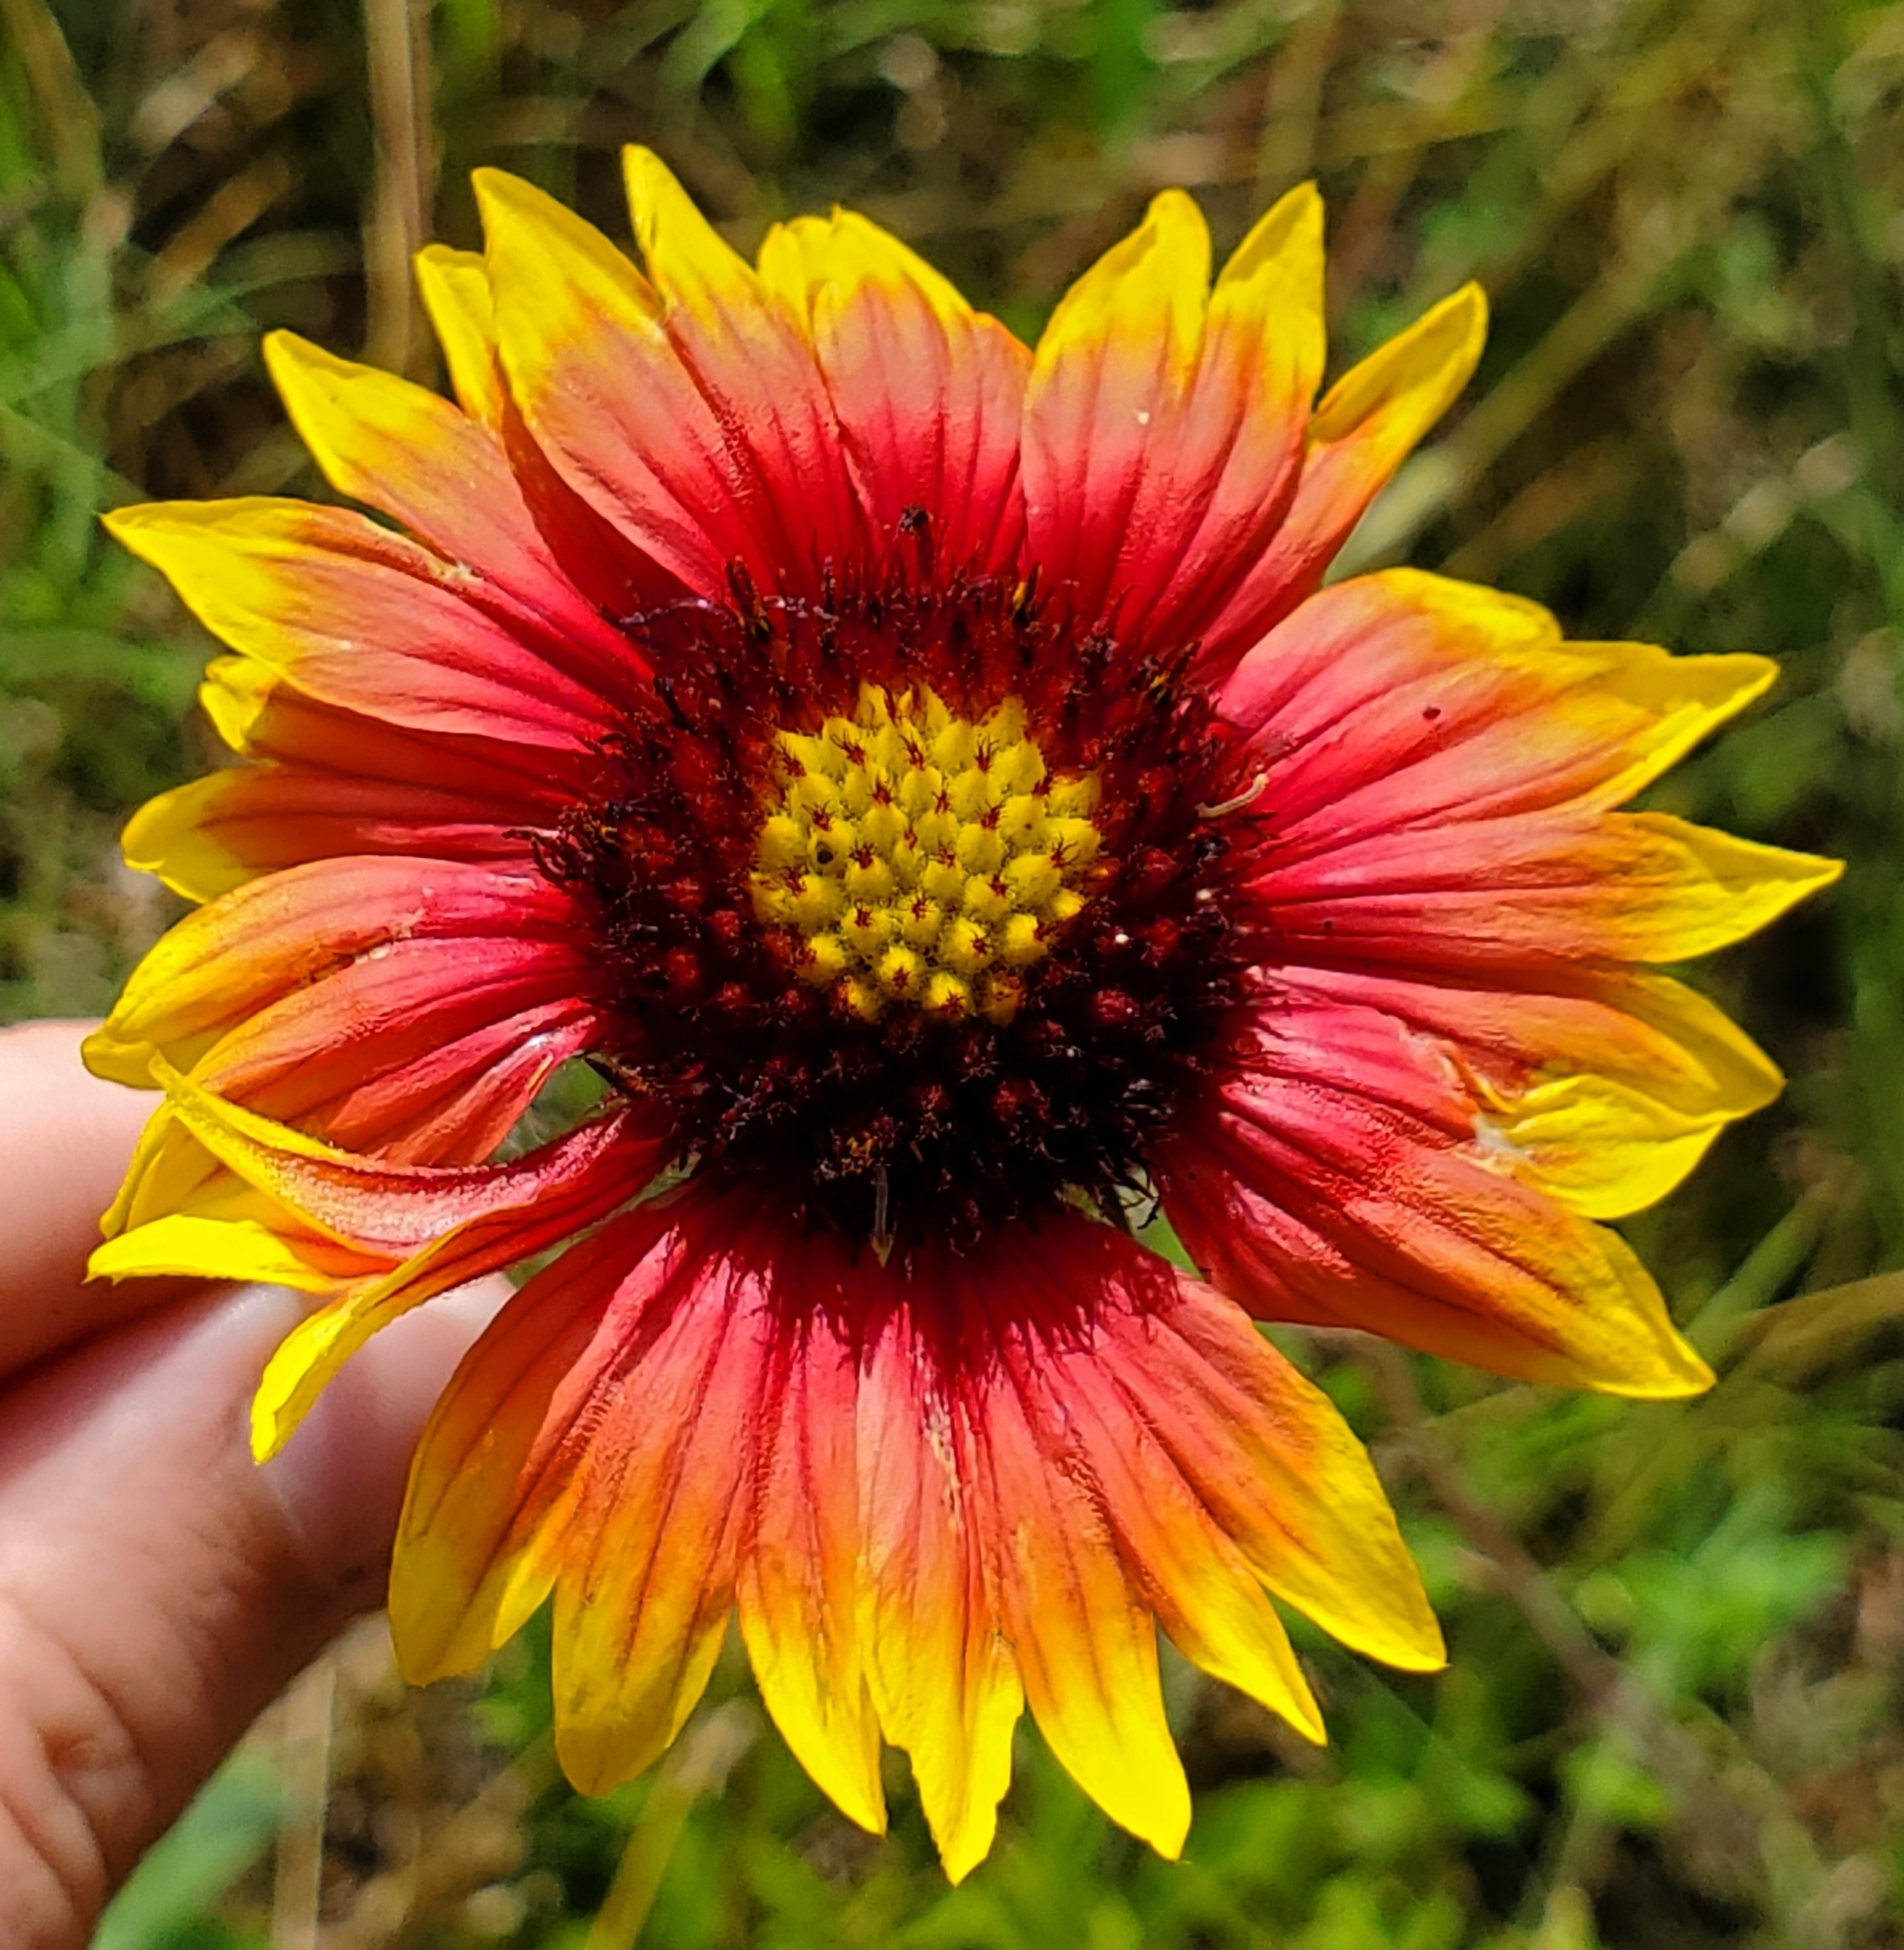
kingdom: Plantae
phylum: Tracheophyta
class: Magnoliopsida
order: Asterales
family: Asteraceae
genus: Gaillardia
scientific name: Gaillardia pulchella
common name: Firewheel
